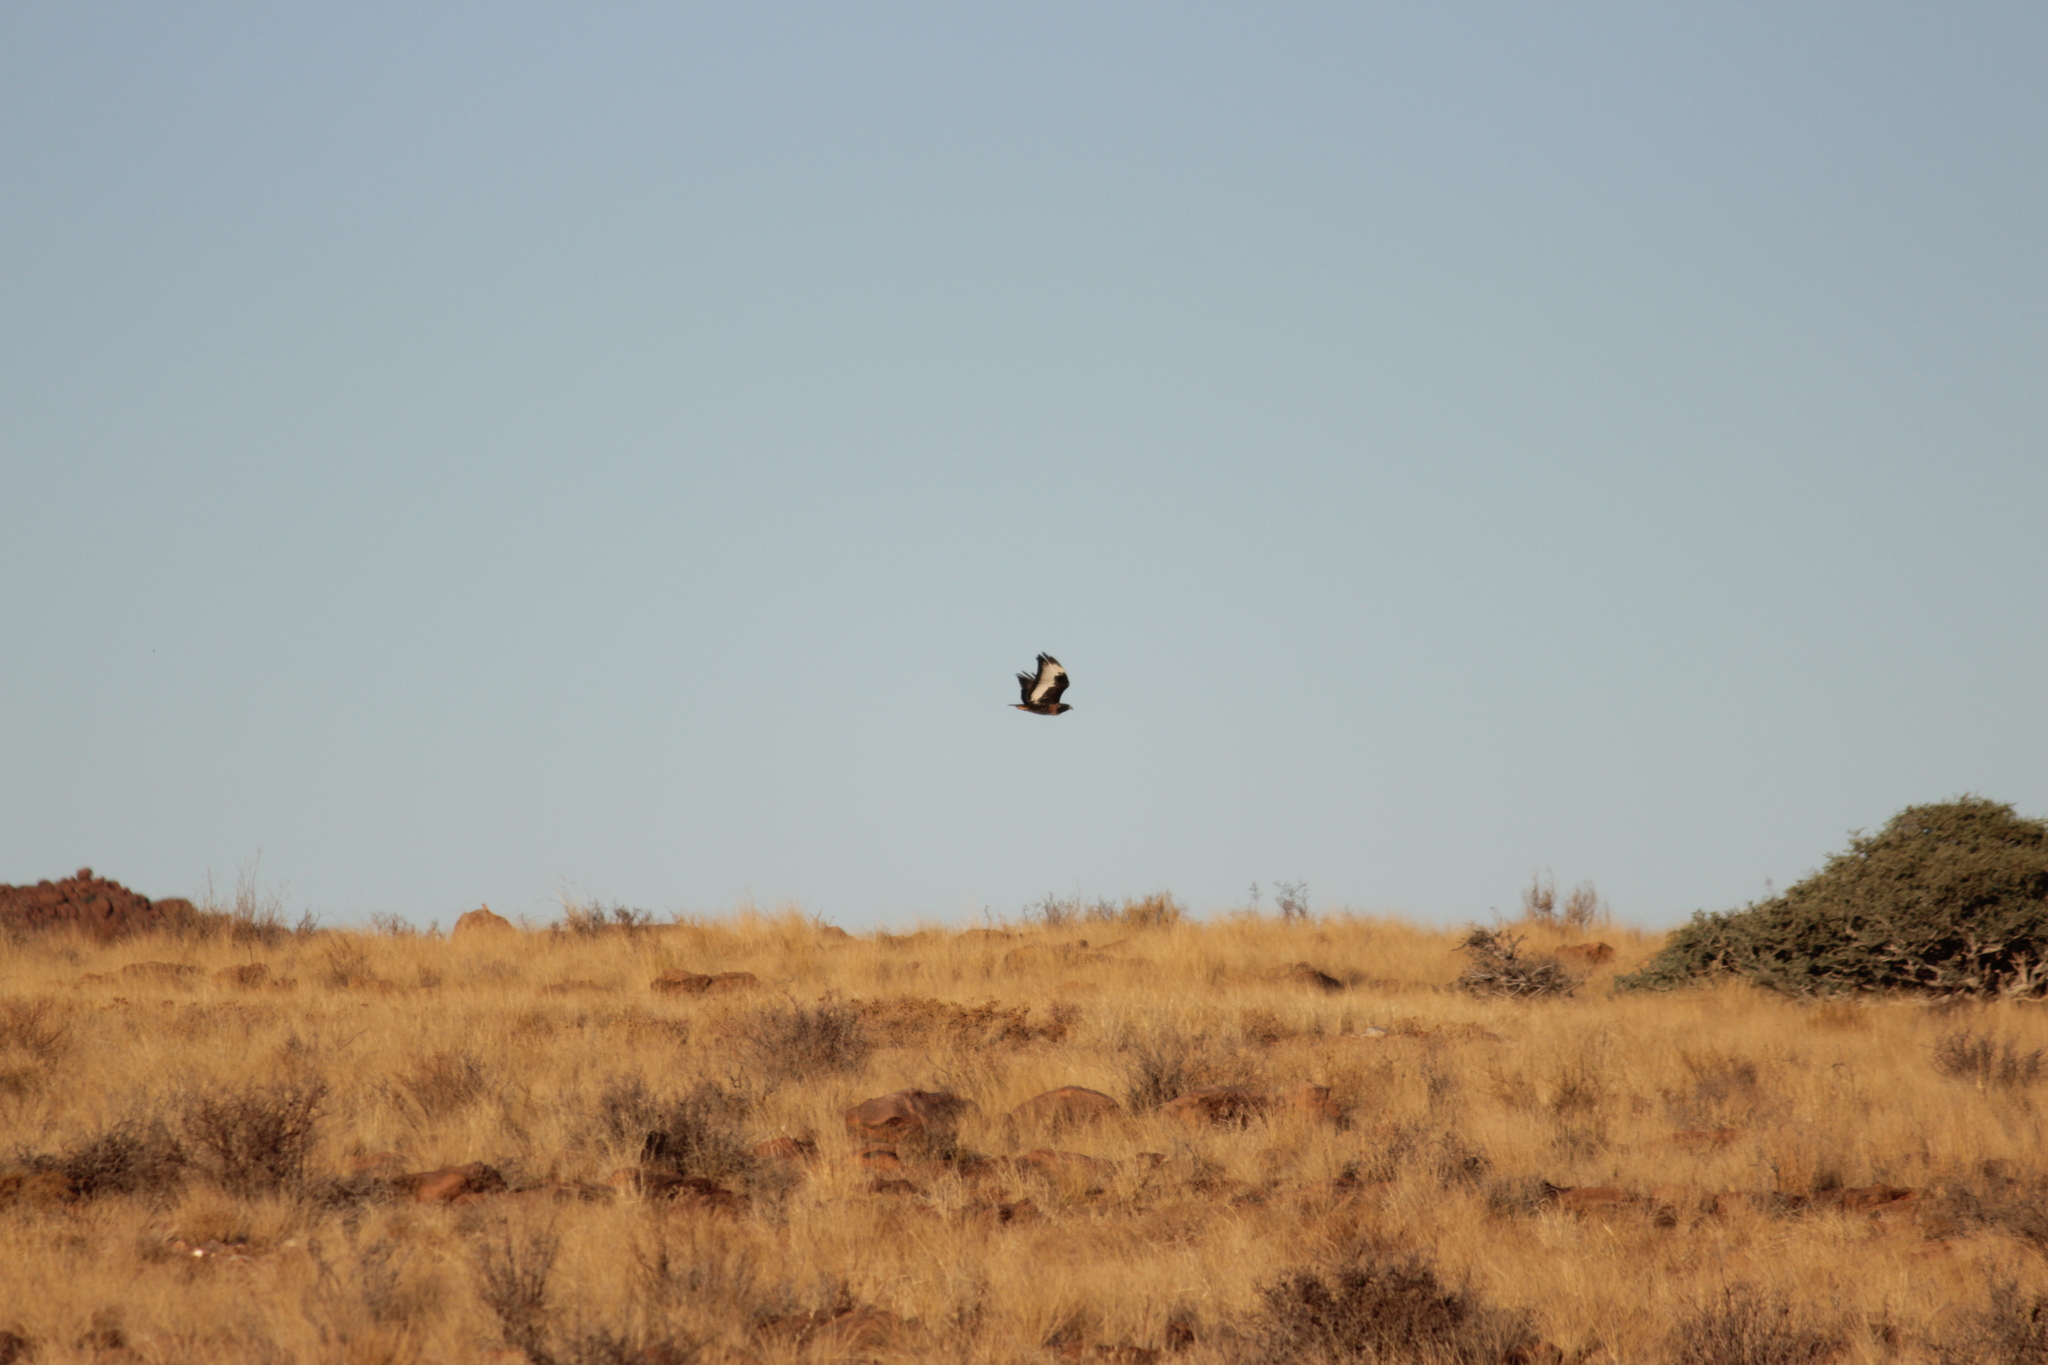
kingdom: Animalia
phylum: Chordata
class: Aves
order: Accipitriformes
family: Accipitridae
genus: Buteo
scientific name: Buteo rufofuscus
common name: Jackal buzzard
